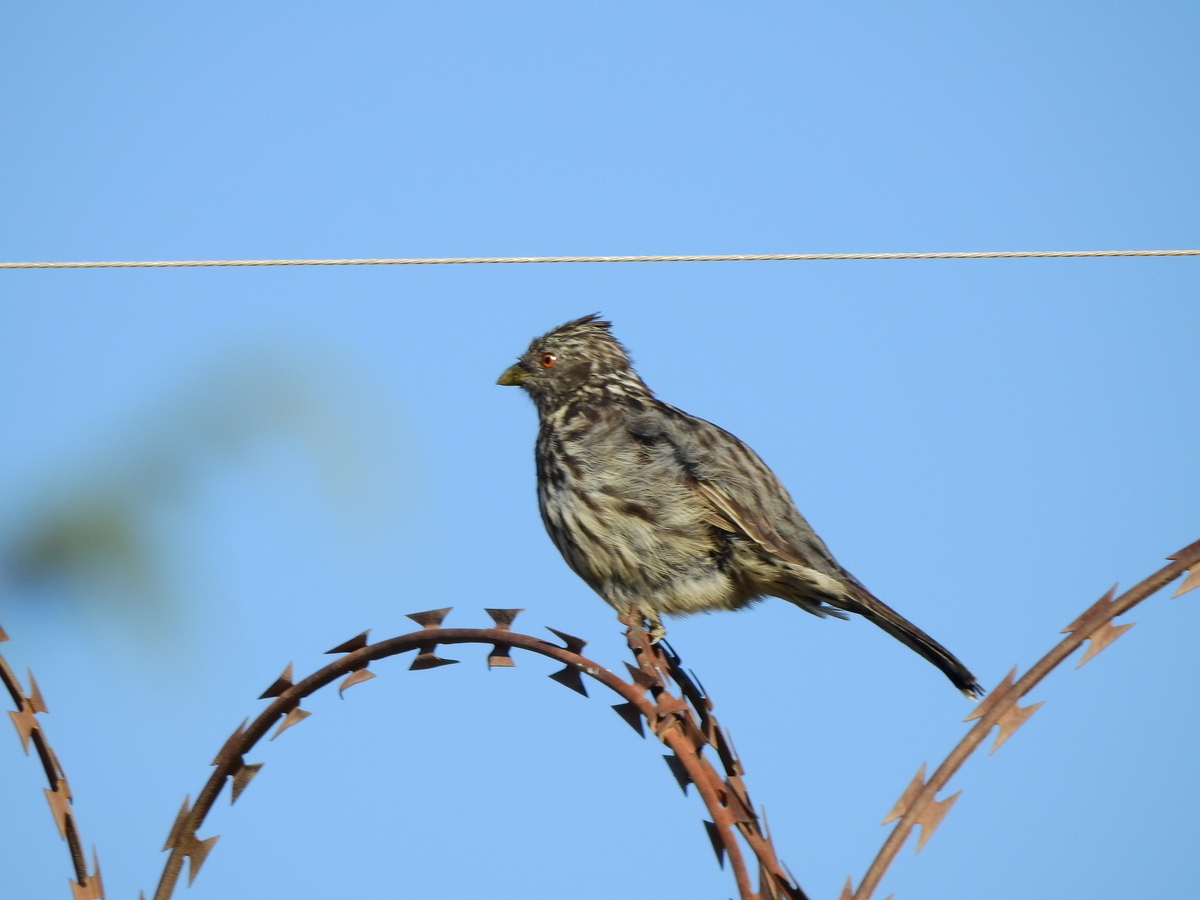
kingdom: Animalia
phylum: Chordata
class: Aves
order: Passeriformes
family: Cotingidae
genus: Phytotoma
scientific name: Phytotoma rutila
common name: White-tipped plantcutter
